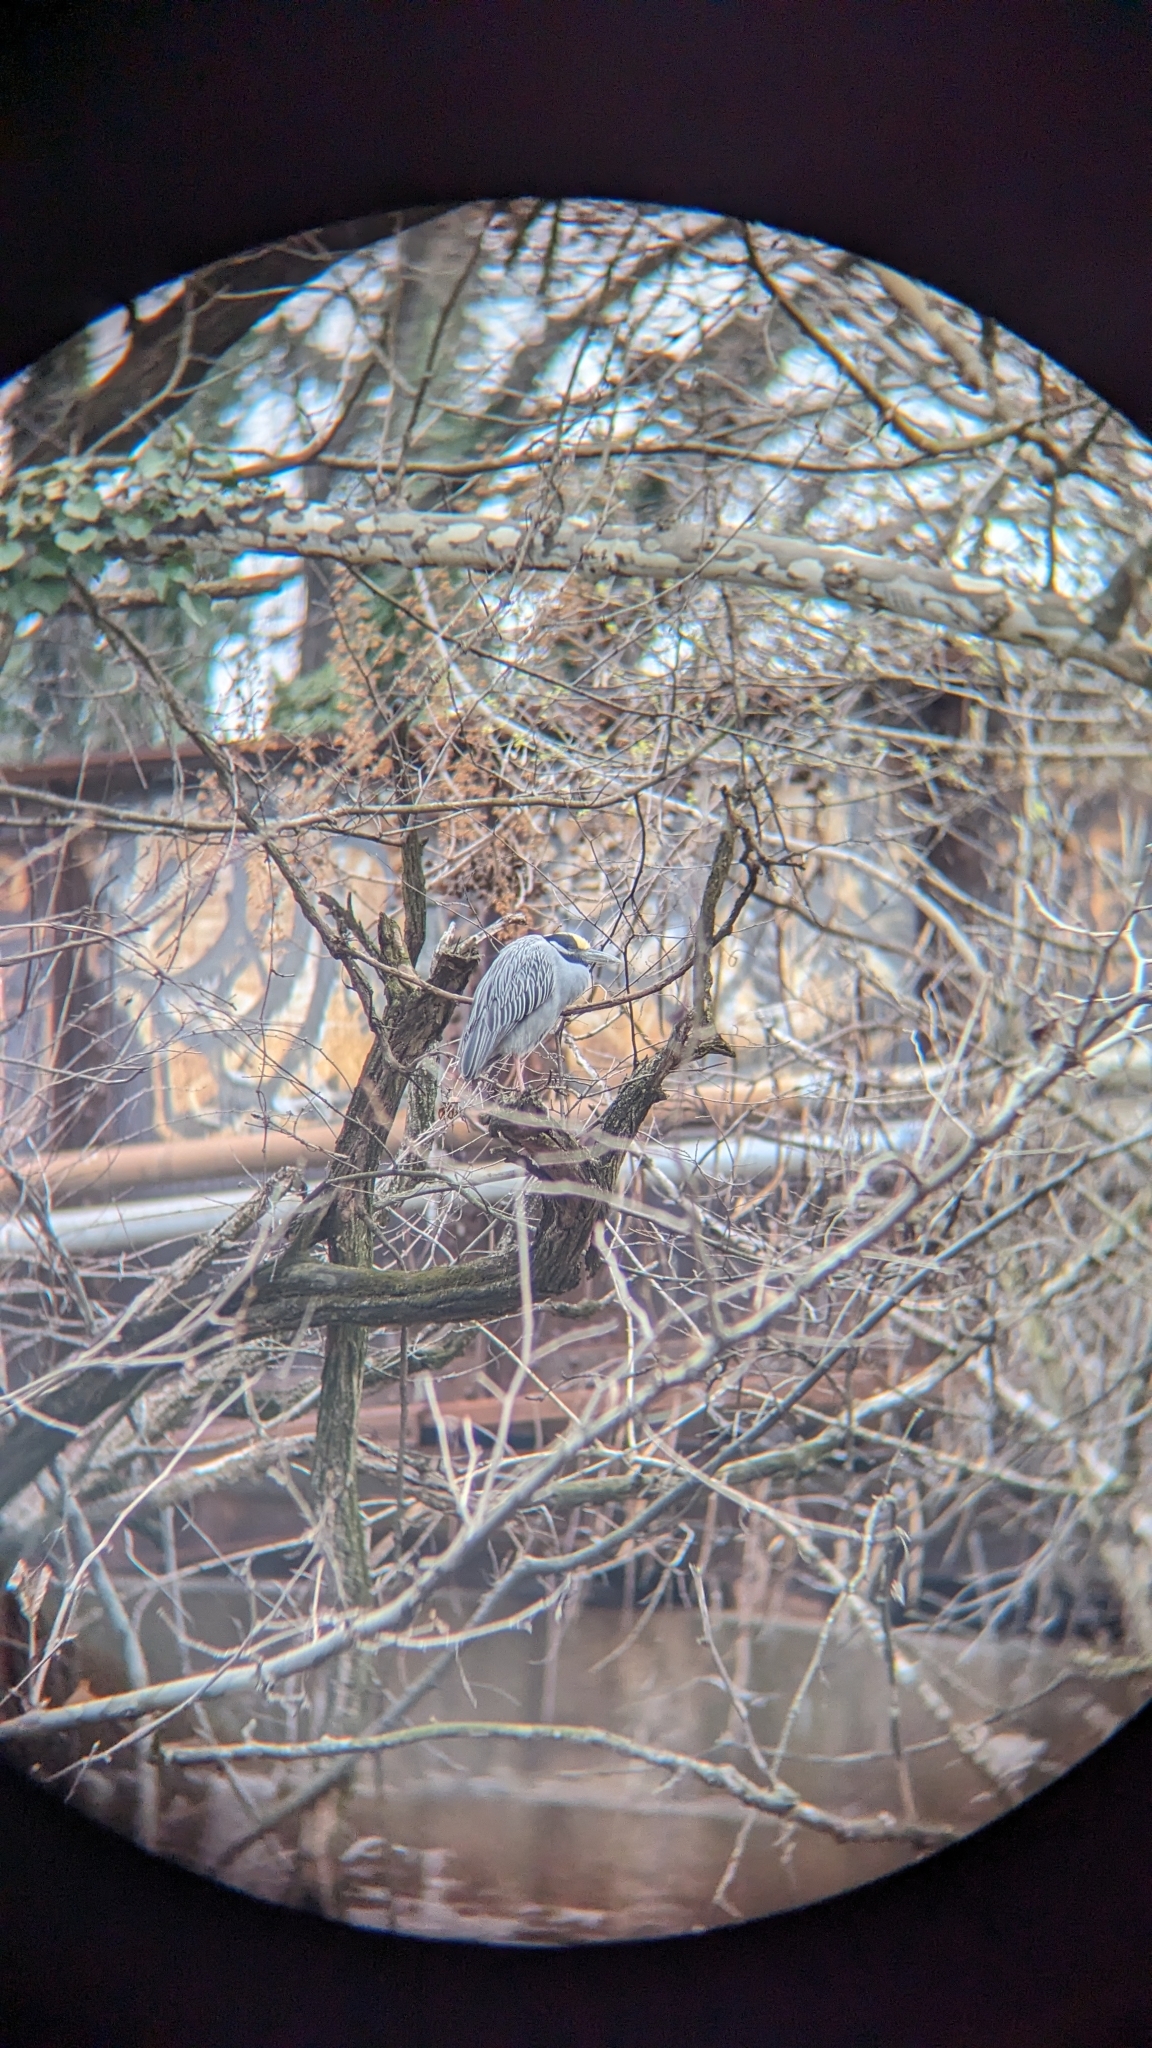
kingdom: Animalia
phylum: Chordata
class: Aves
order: Pelecaniformes
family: Ardeidae
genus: Nyctanassa
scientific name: Nyctanassa violacea
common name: Yellow-crowned night heron
